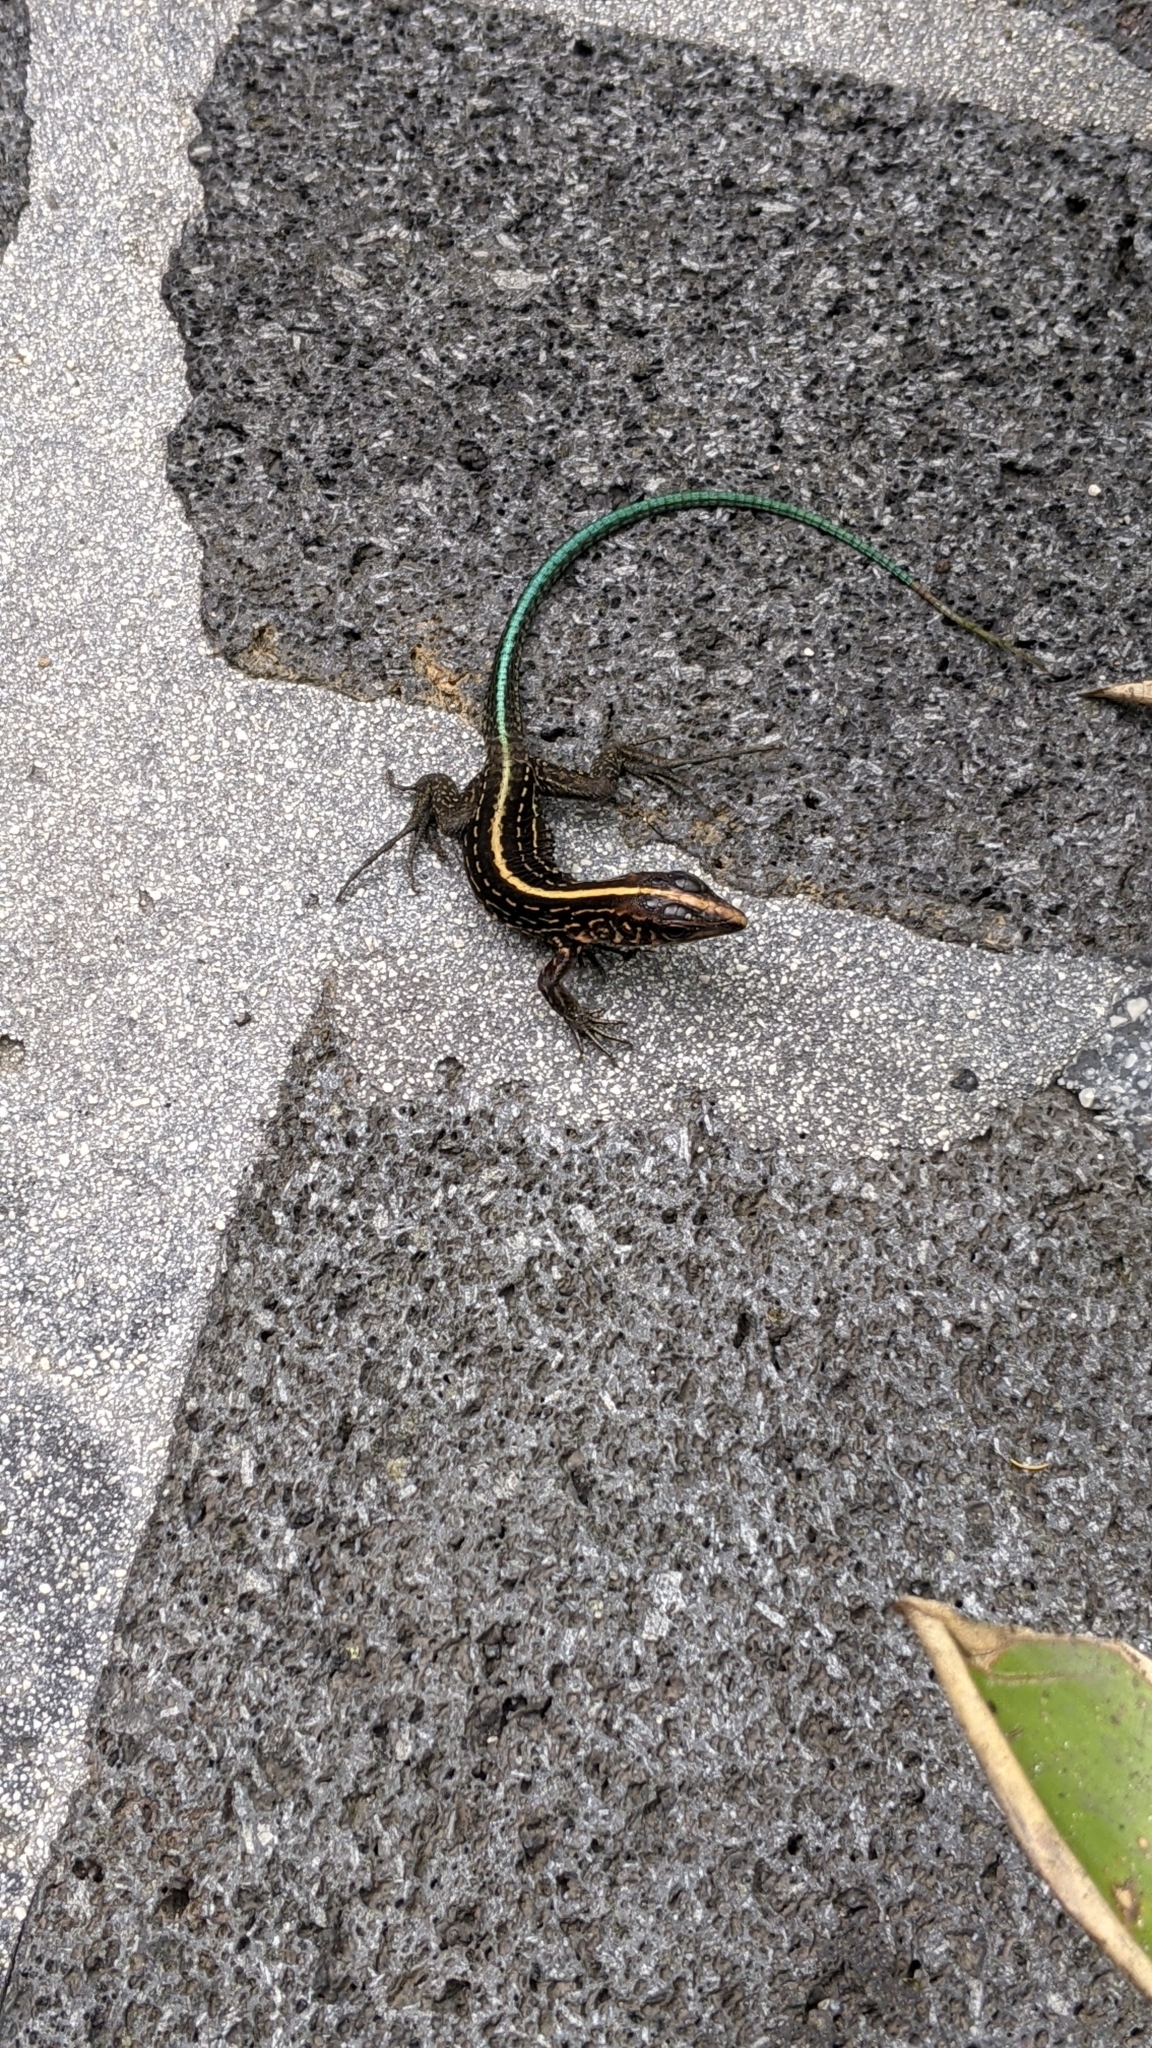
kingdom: Animalia
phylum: Chordata
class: Squamata
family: Teiidae
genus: Holcosus
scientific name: Holcosus festivus
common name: Middle american ameiva
